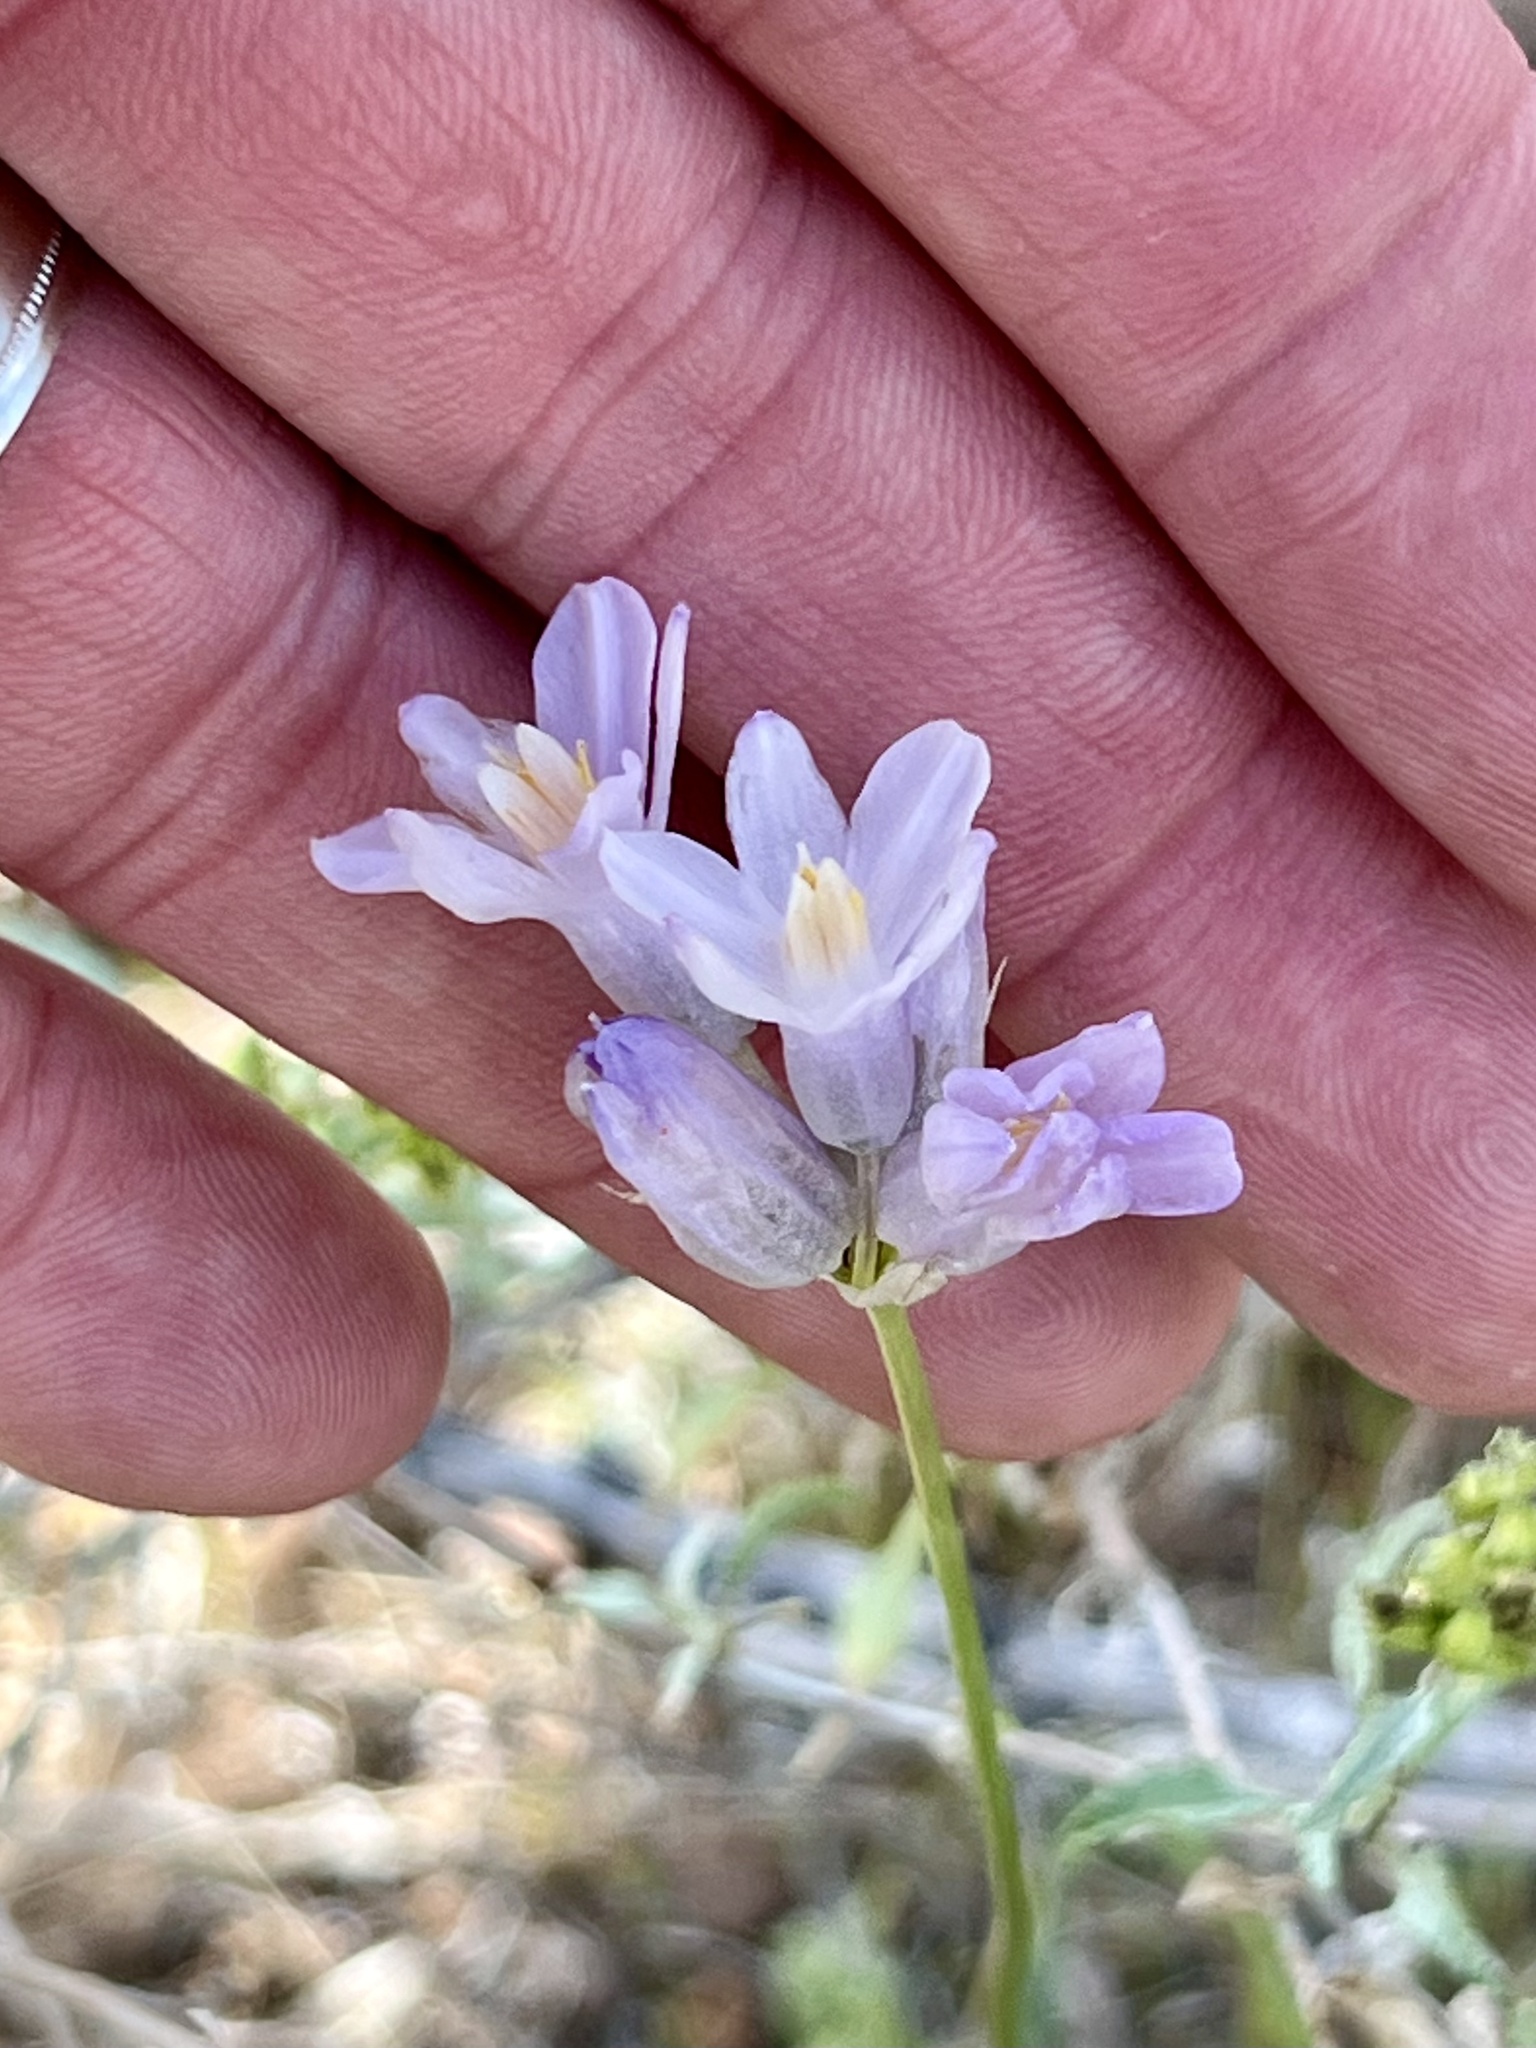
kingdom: Plantae
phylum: Tracheophyta
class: Liliopsida
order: Asparagales
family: Asparagaceae
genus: Dipterostemon
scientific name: Dipterostemon capitatus
